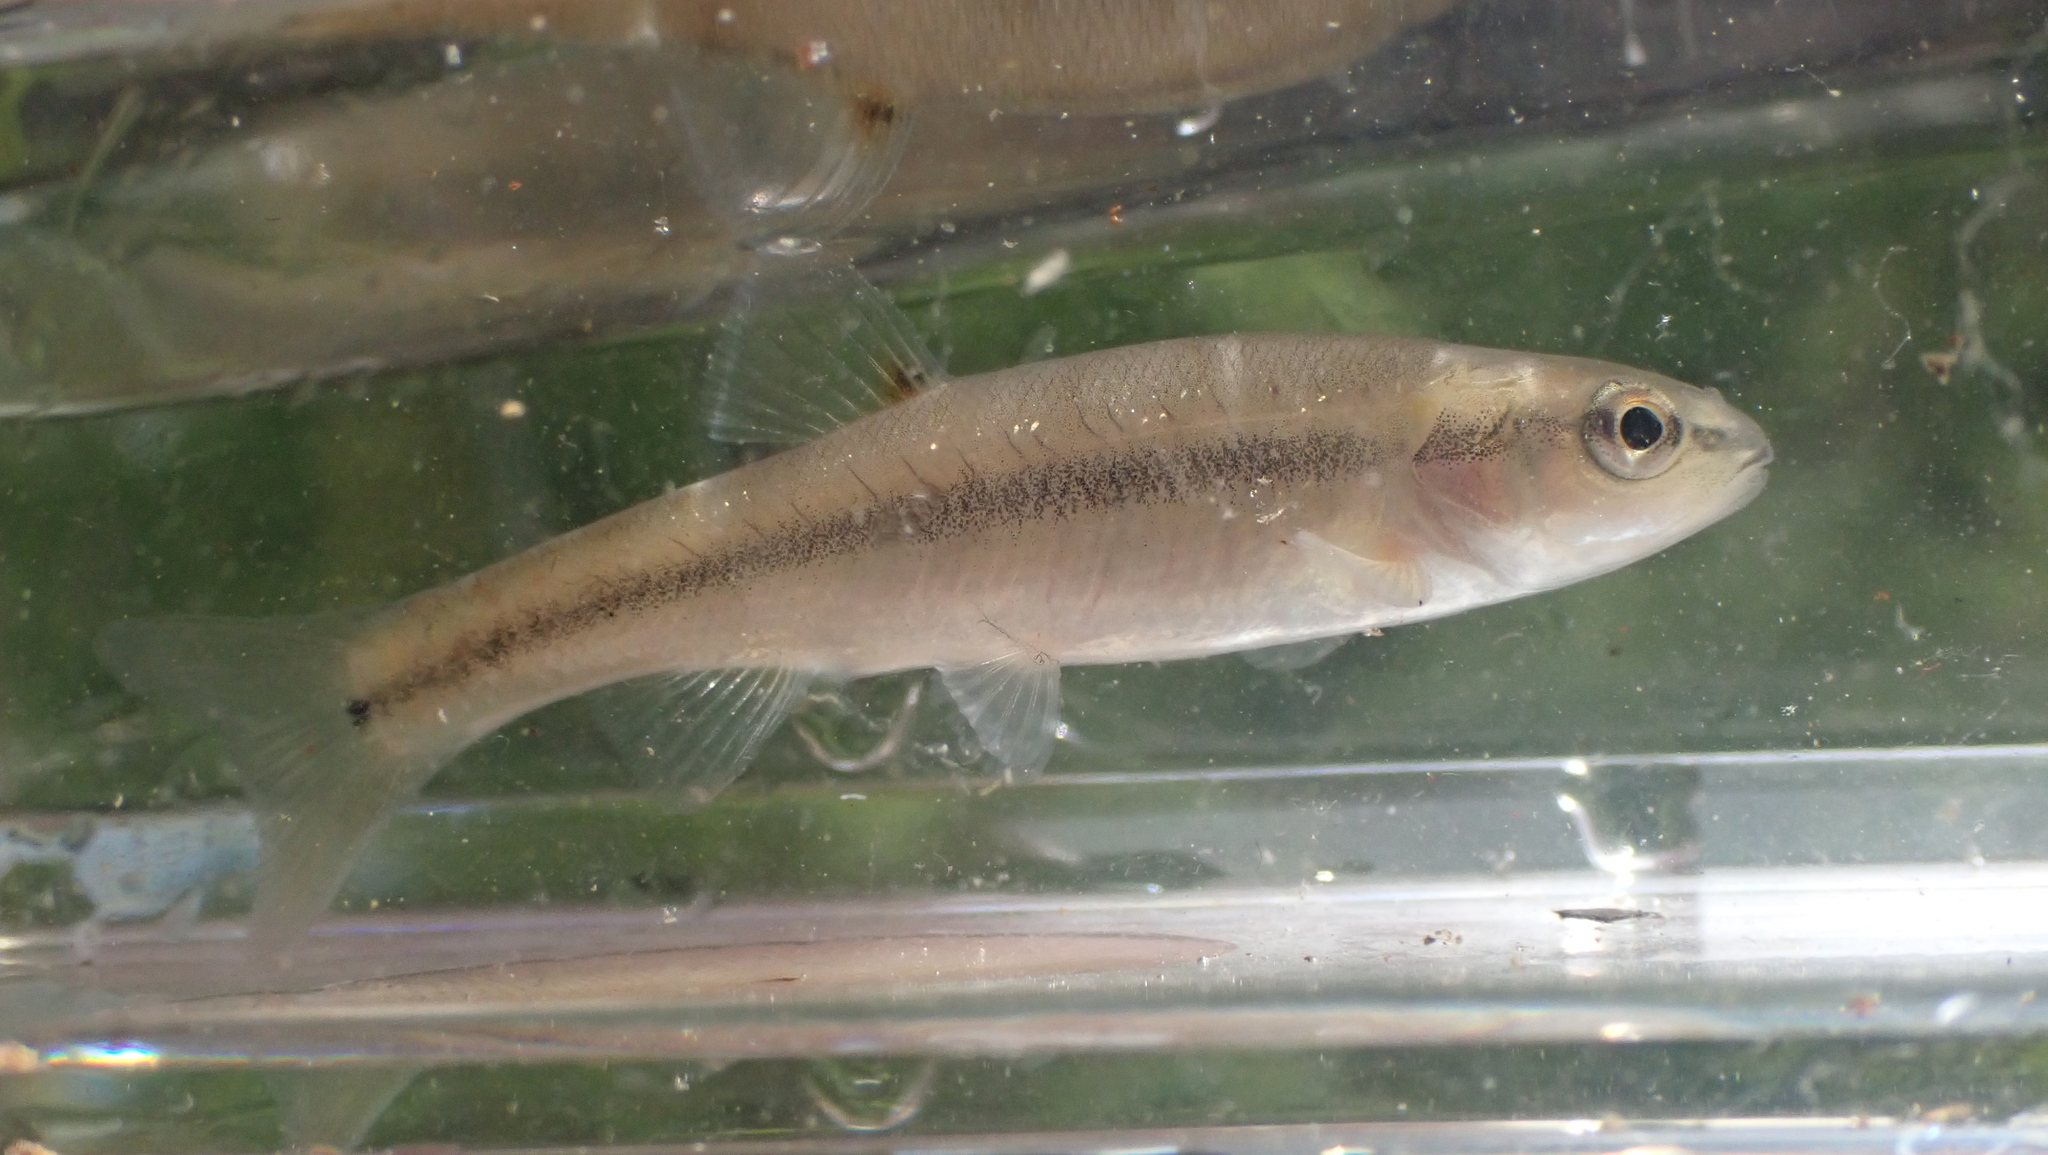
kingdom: Animalia
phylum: Chordata
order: Cypriniformes
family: Cyprinidae
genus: Semotilus
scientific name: Semotilus atromaculatus
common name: Creek chub
